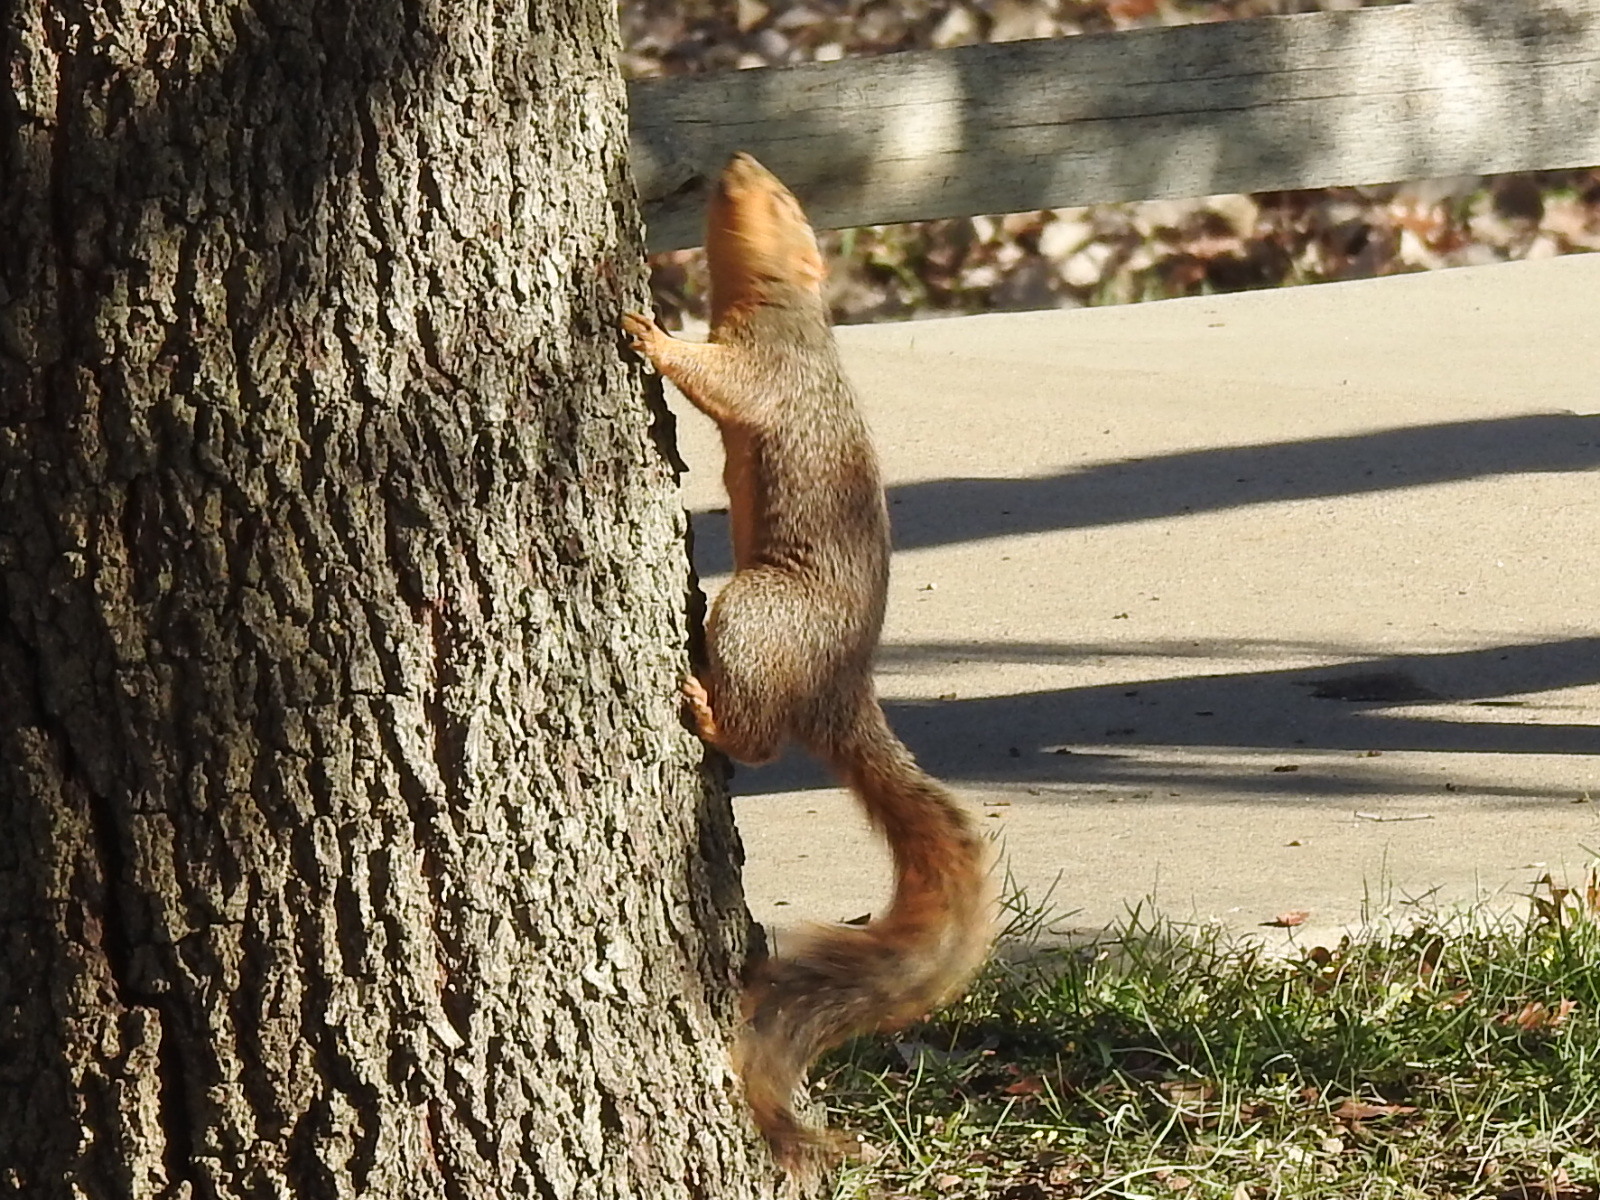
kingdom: Animalia
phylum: Chordata
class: Mammalia
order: Rodentia
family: Sciuridae
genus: Sciurus
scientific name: Sciurus niger
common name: Fox squirrel
